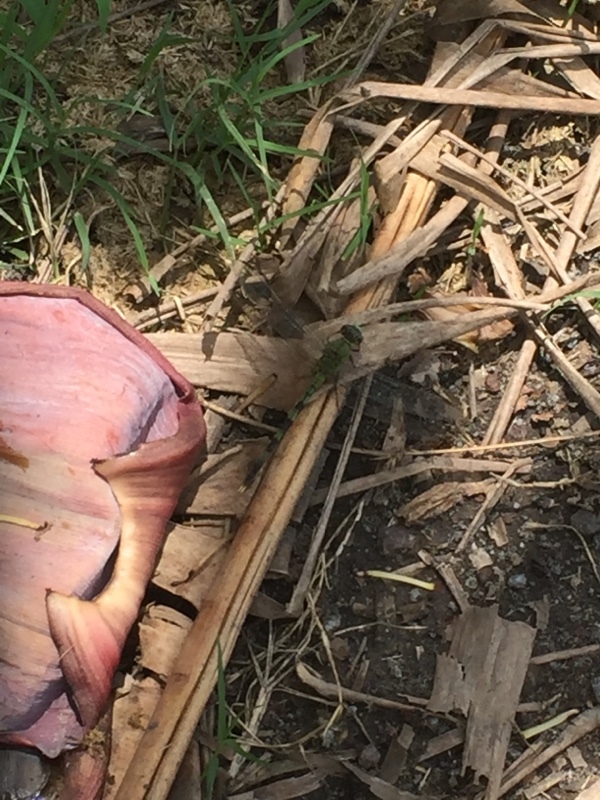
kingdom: Animalia
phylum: Arthropoda
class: Insecta
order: Odonata
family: Libellulidae
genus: Erythemis
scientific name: Erythemis vesiculosa
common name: Great pondhawk
